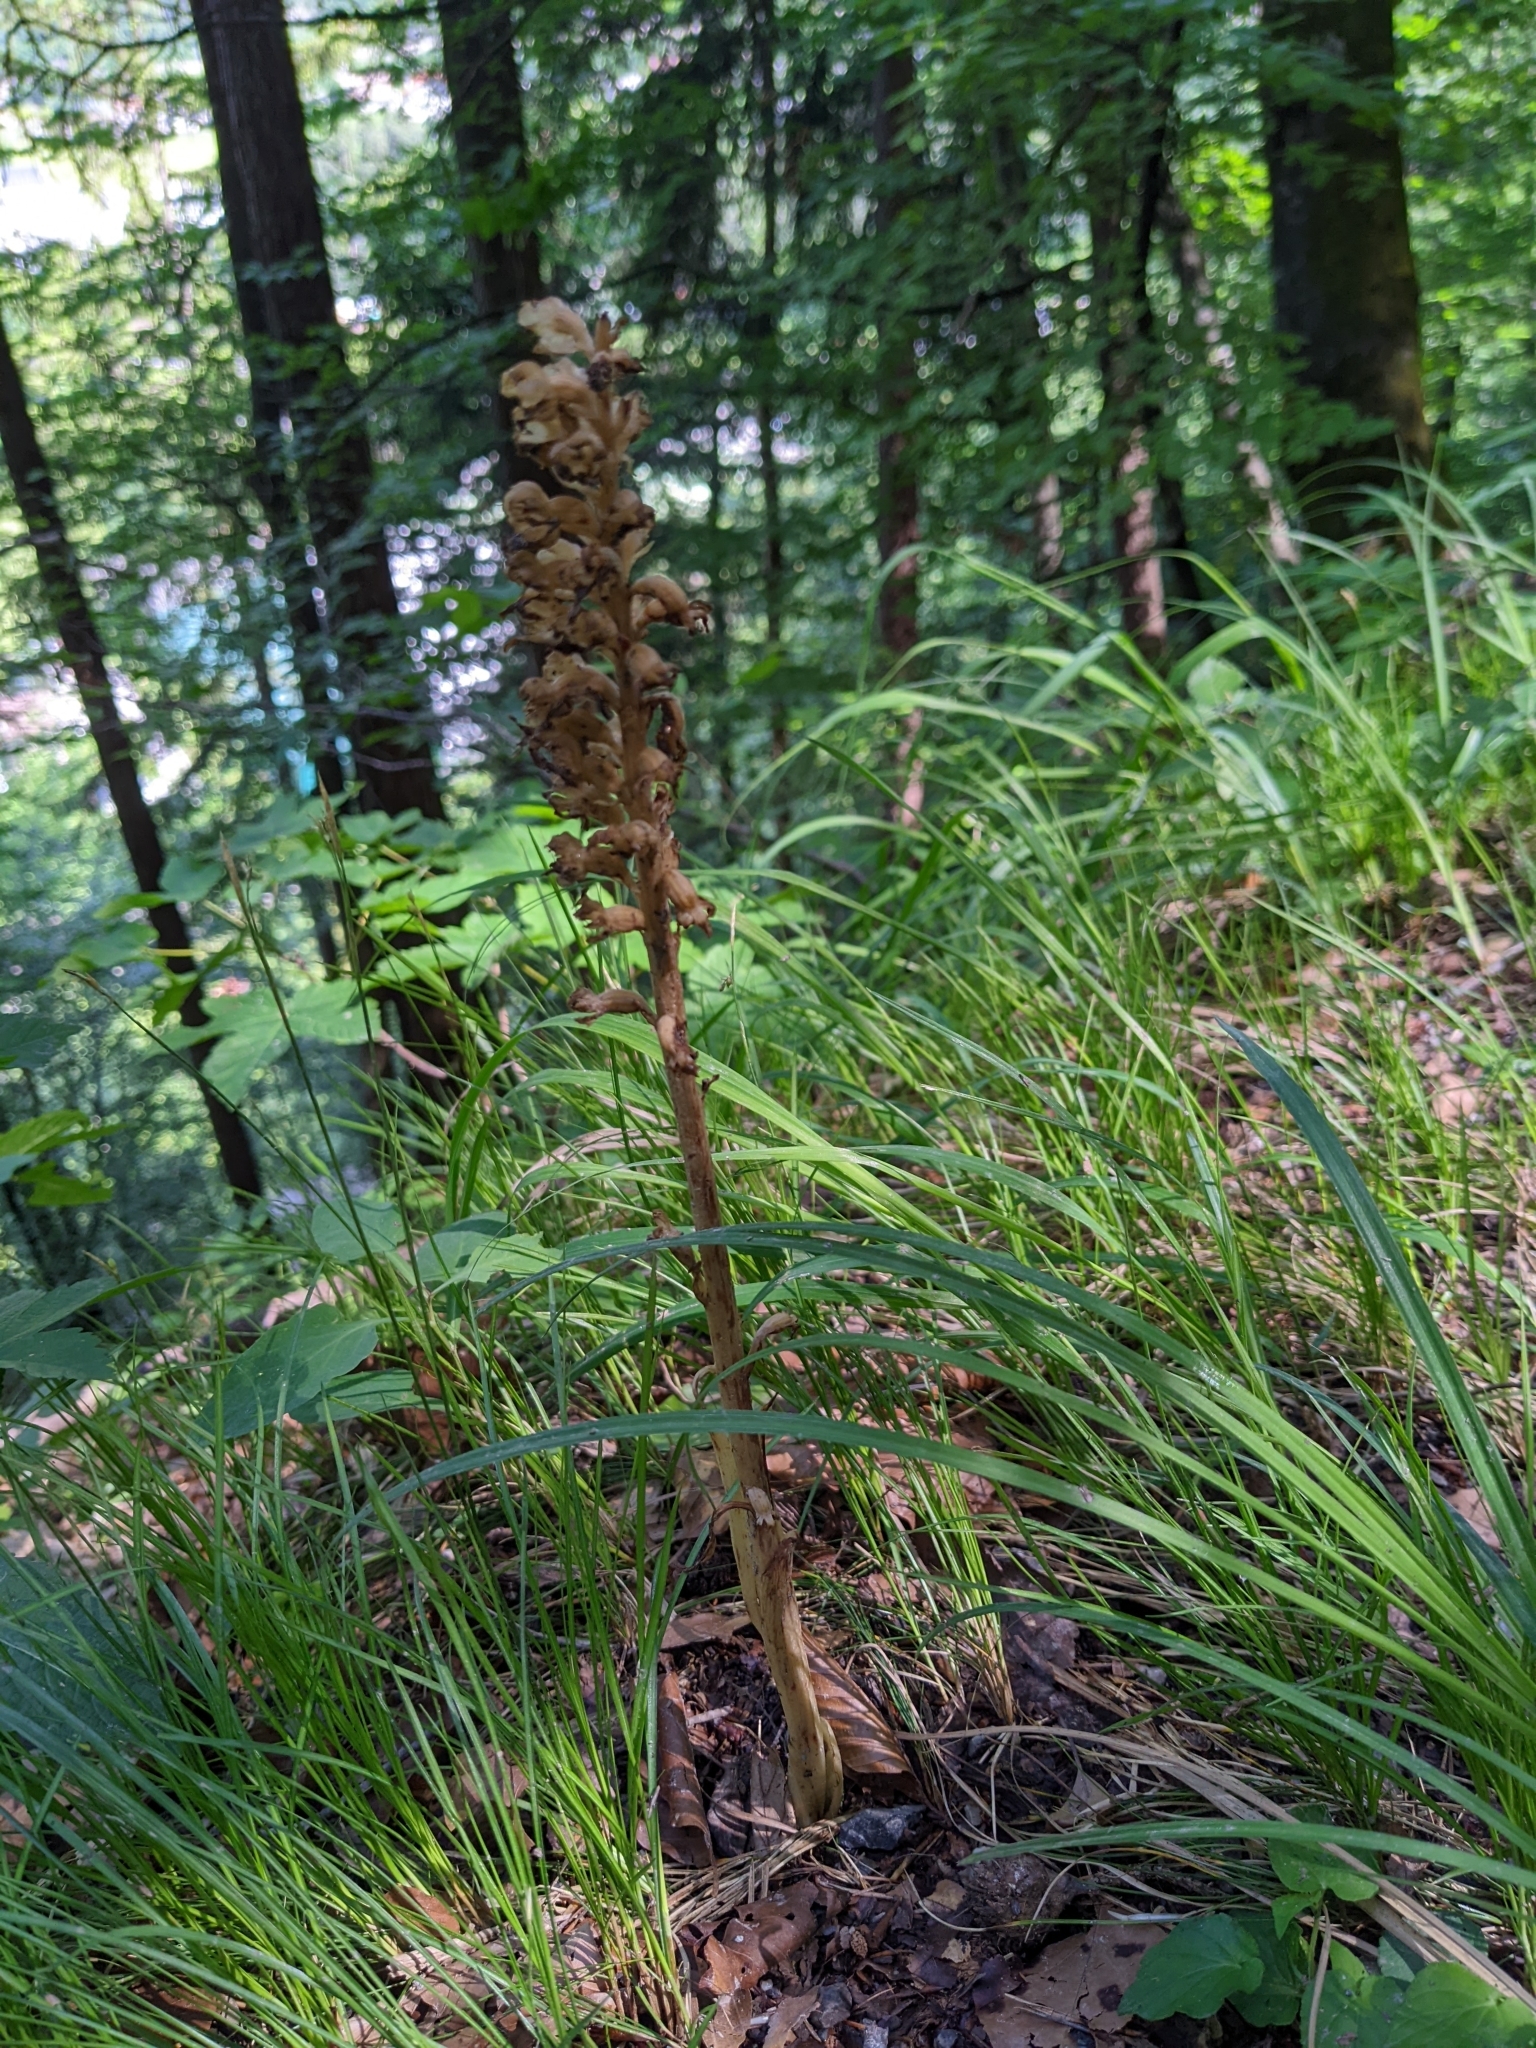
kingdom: Plantae
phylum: Tracheophyta
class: Liliopsida
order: Asparagales
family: Orchidaceae
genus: Neottia
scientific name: Neottia nidus-avis
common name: Bird's-nest orchid
